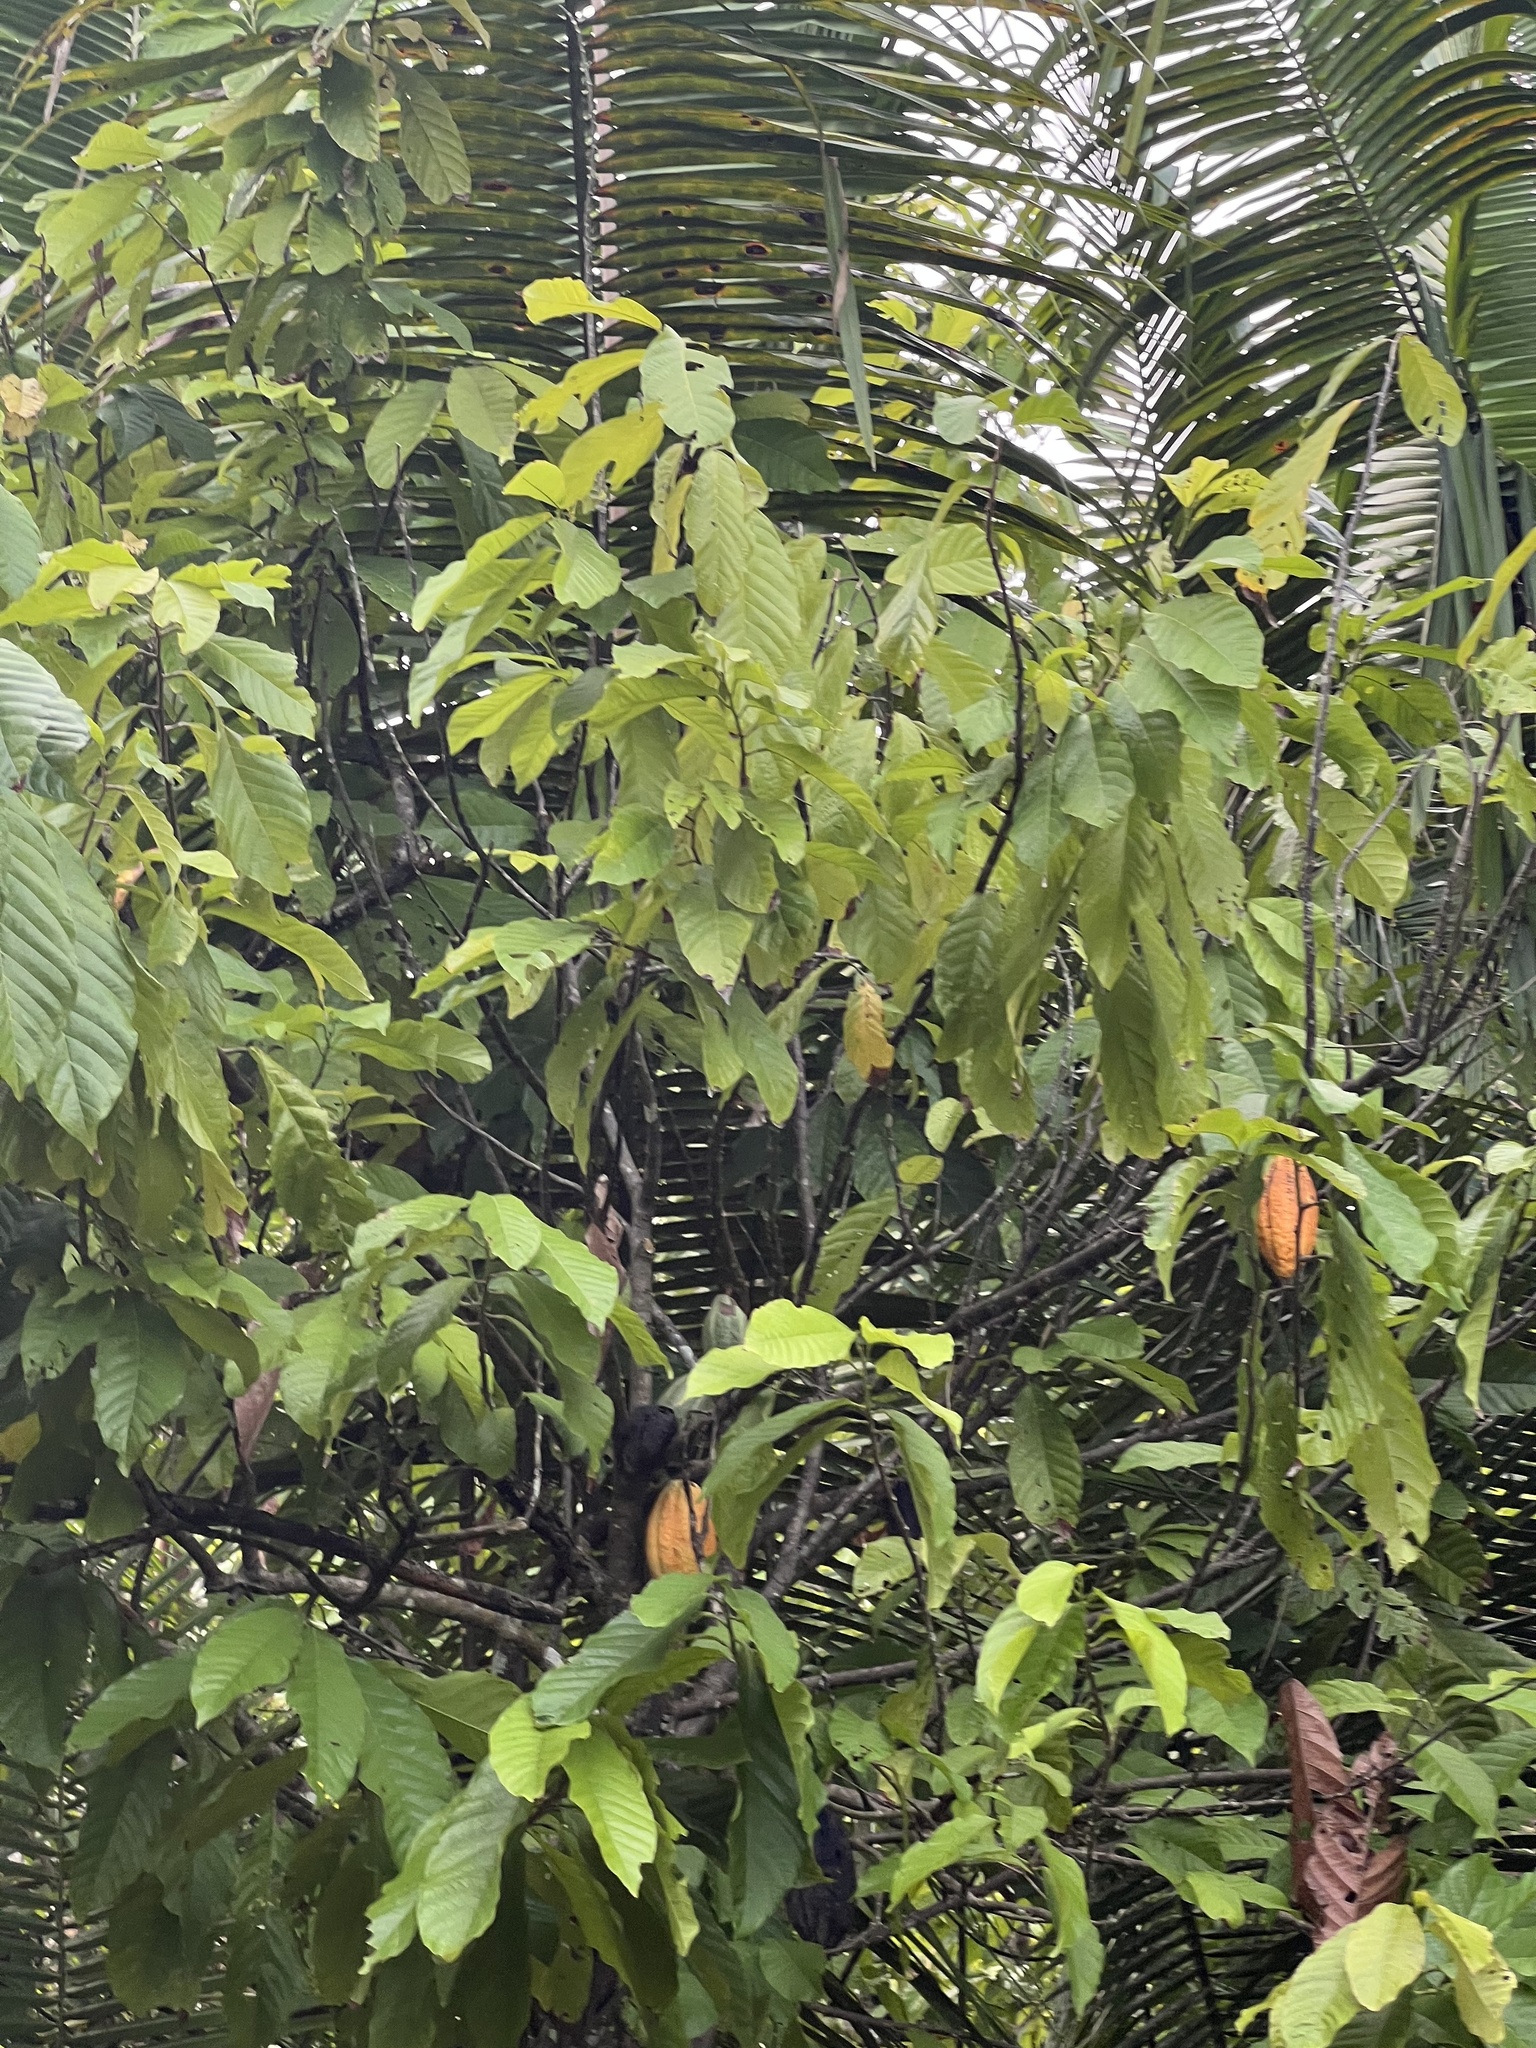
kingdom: Plantae
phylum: Tracheophyta
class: Magnoliopsida
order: Malvales
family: Malvaceae
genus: Theobroma
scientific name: Theobroma cacao
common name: Cocoa
